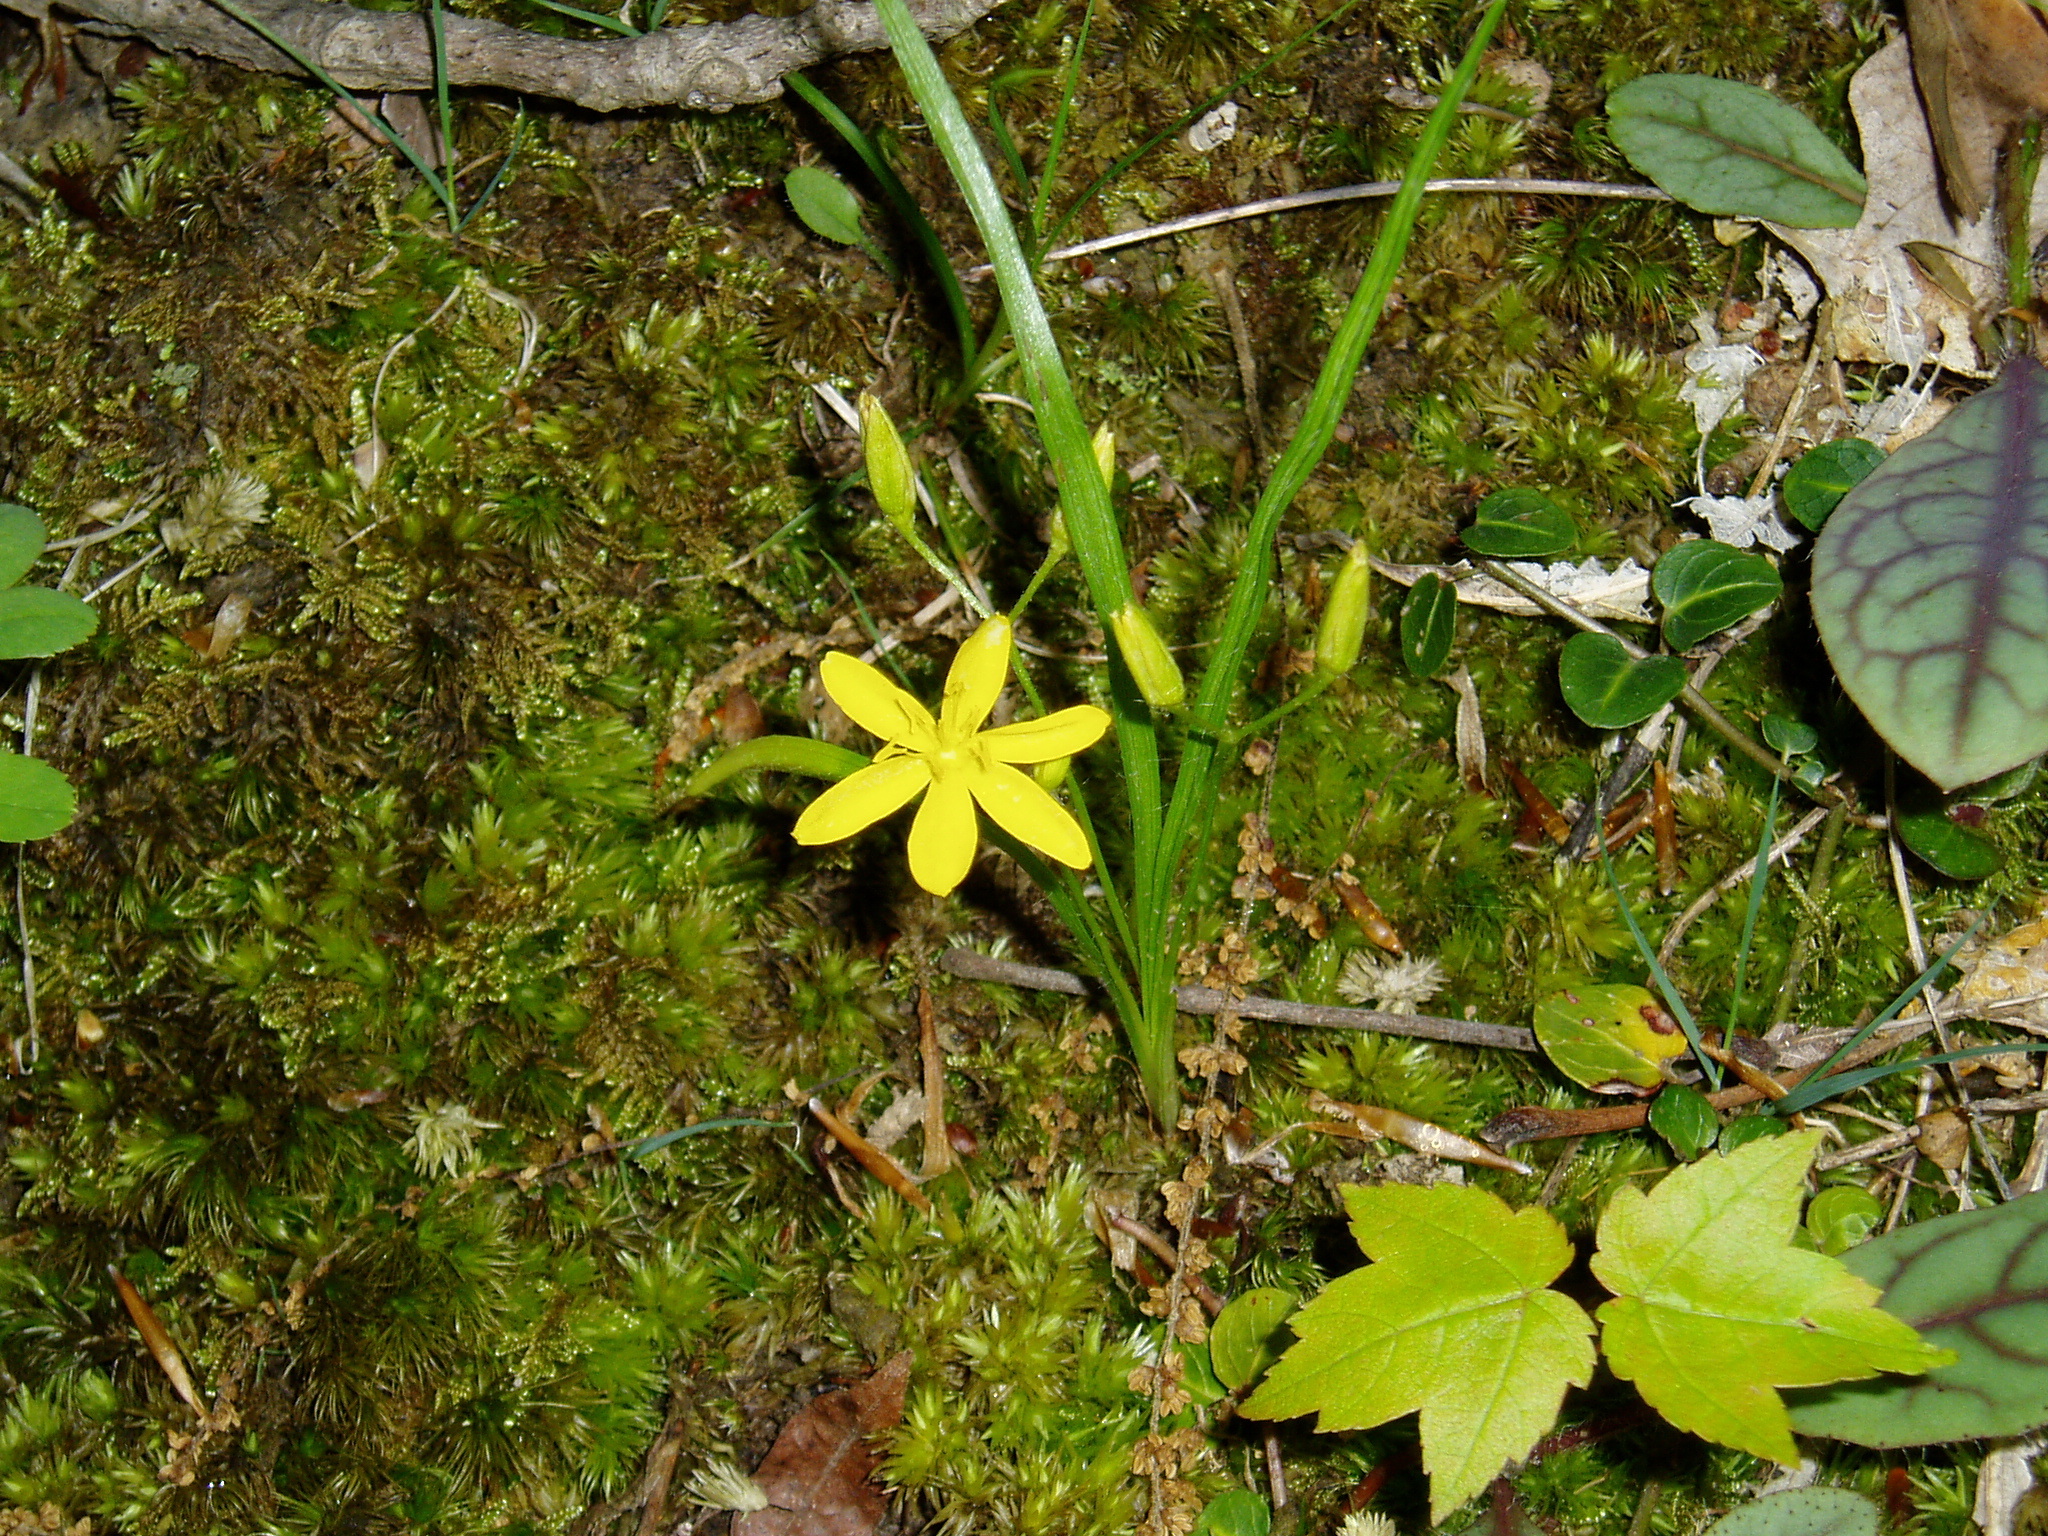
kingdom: Plantae
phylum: Tracheophyta
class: Liliopsida
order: Asparagales
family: Hypoxidaceae
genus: Hypoxis
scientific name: Hypoxis hirsuta
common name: Common goldstar
